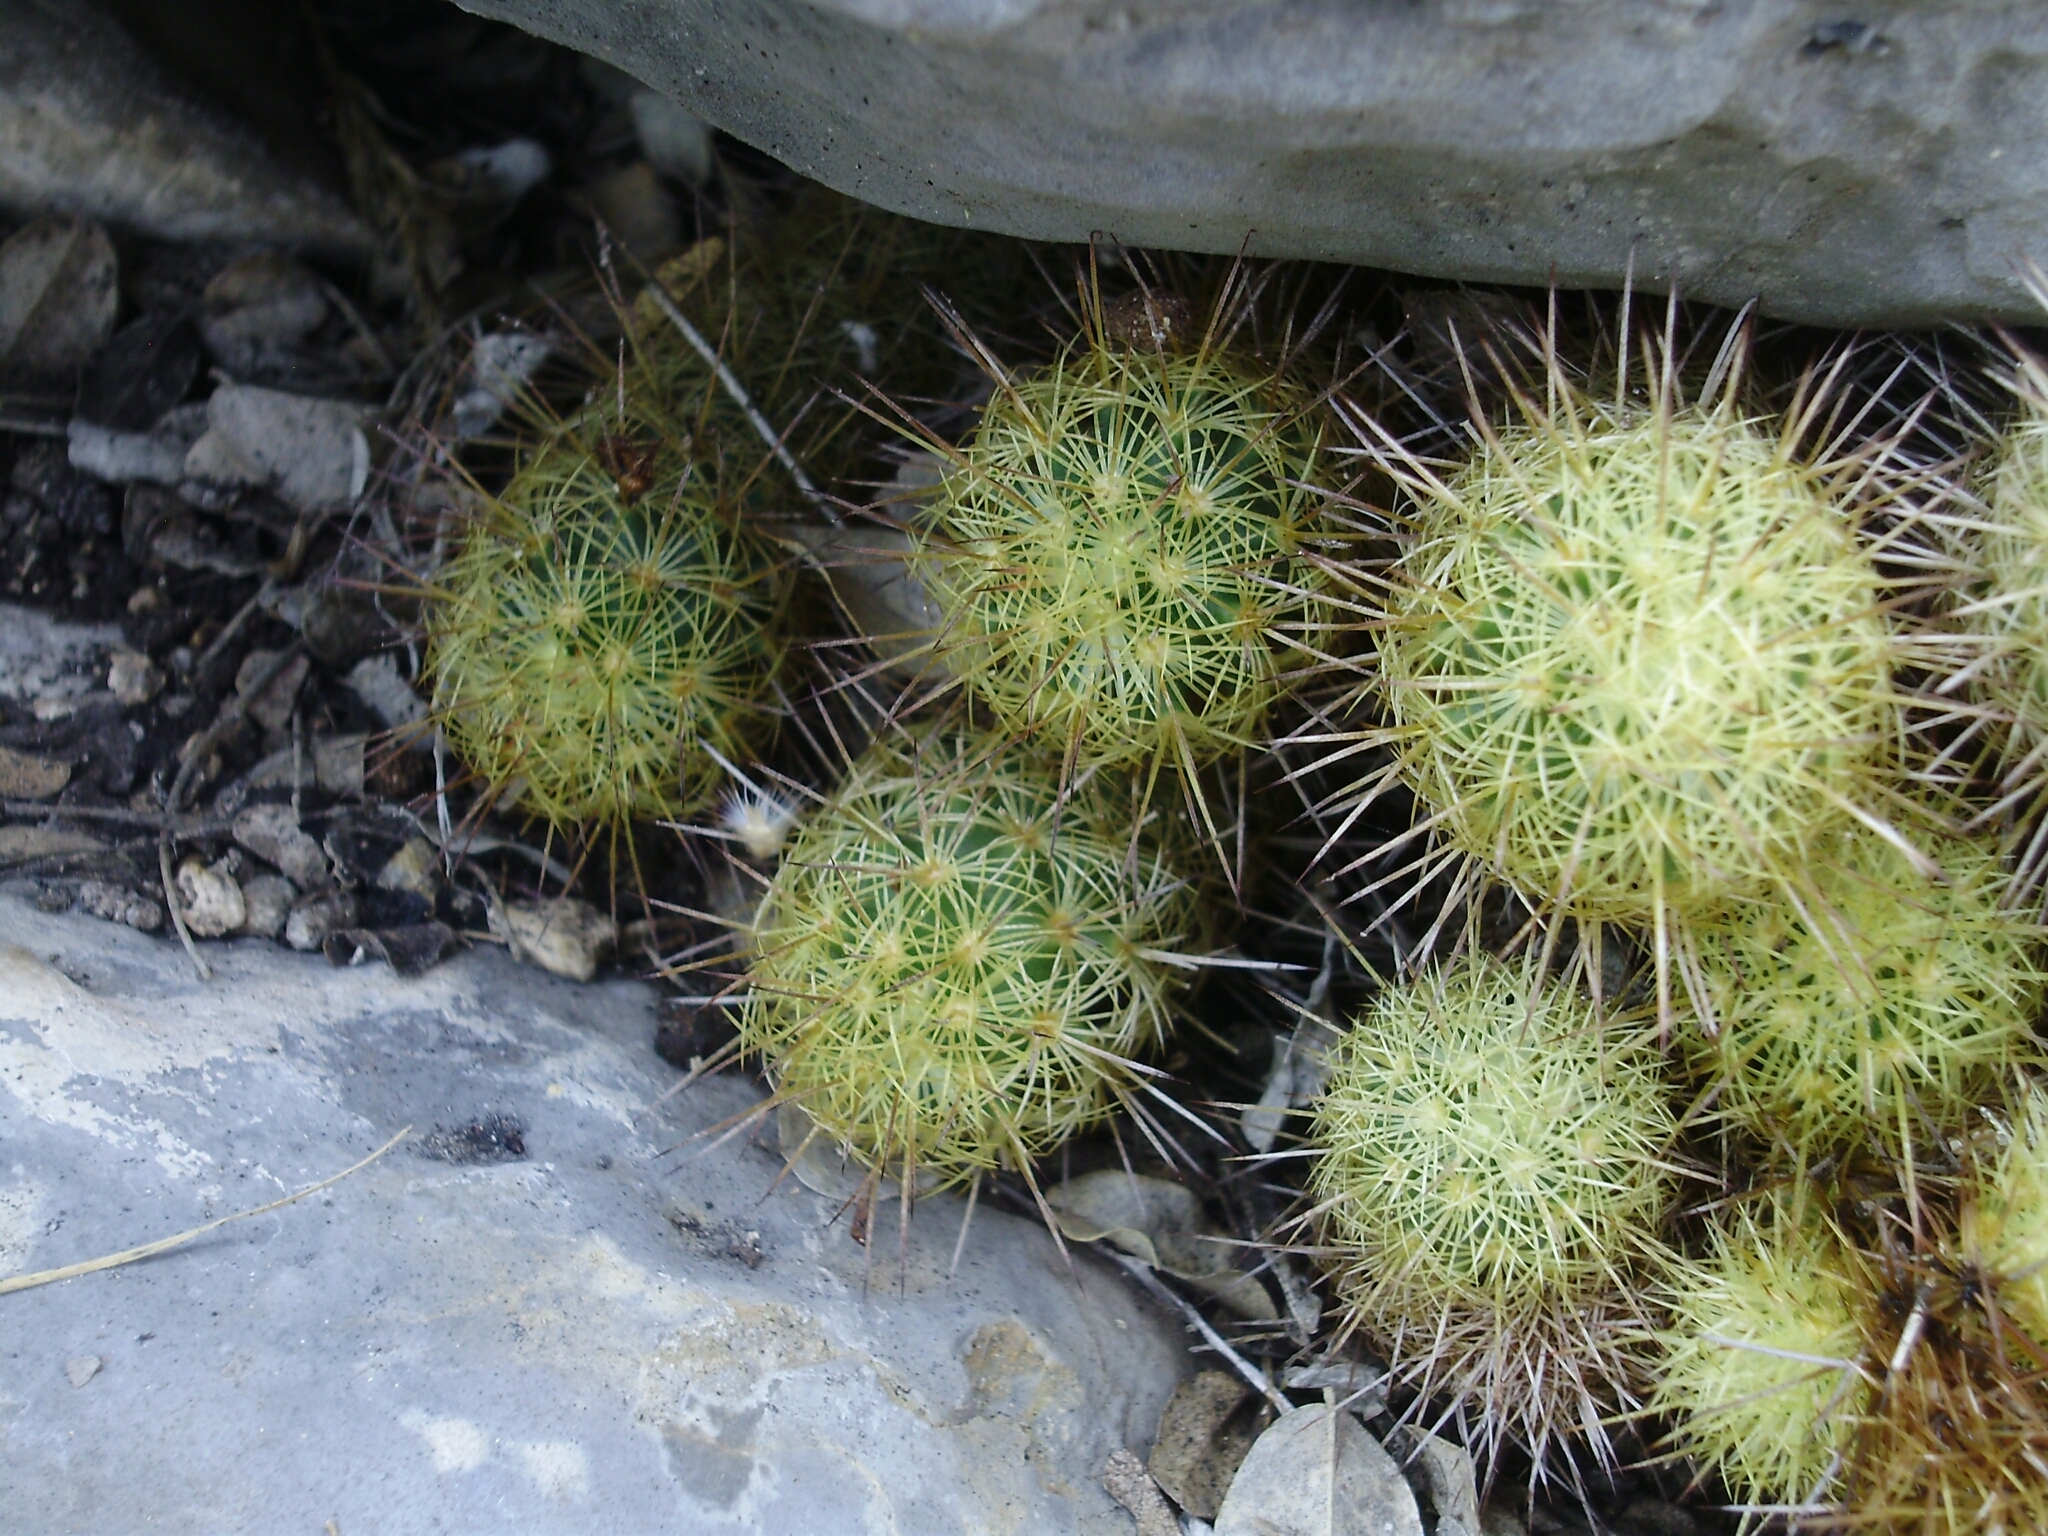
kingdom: Plantae
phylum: Tracheophyta
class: Magnoliopsida
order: Caryophyllales
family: Cactaceae
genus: Mammillaria
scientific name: Mammillaria elongata
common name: Golden star cactus
